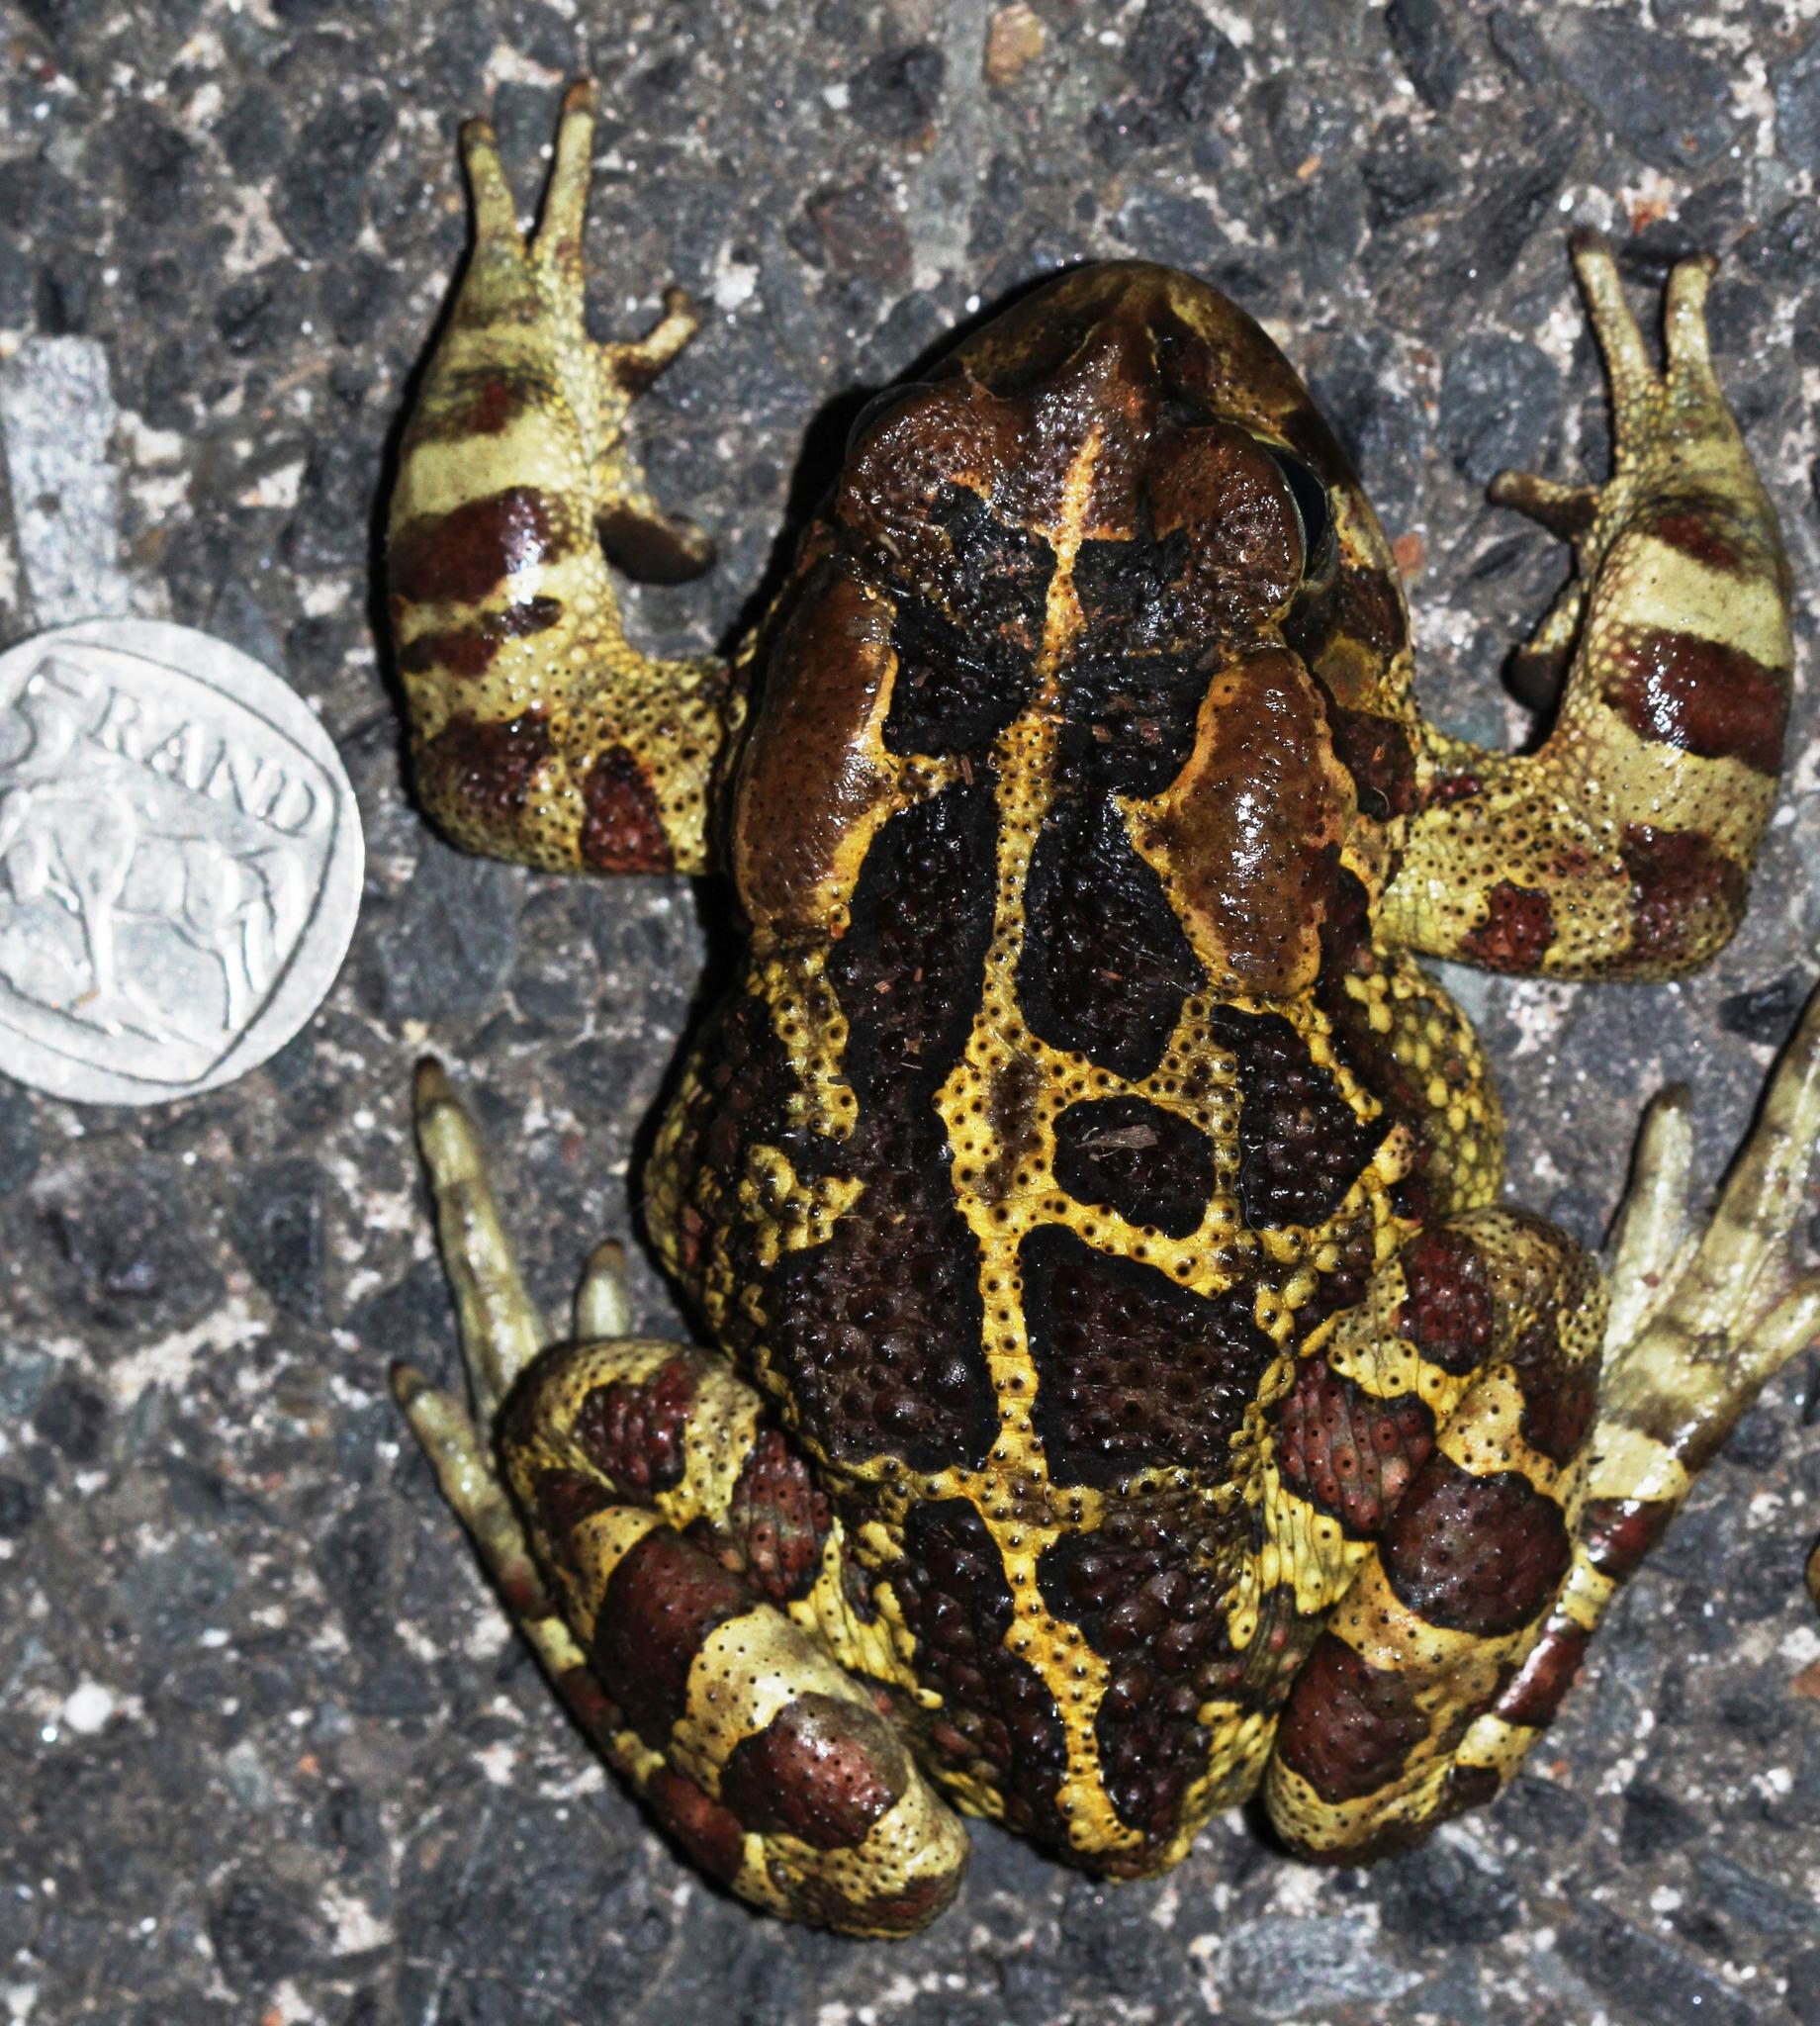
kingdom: Animalia
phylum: Chordata
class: Amphibia
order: Anura
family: Bufonidae
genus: Sclerophrys
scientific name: Sclerophrys pantherina
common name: Panther toad
